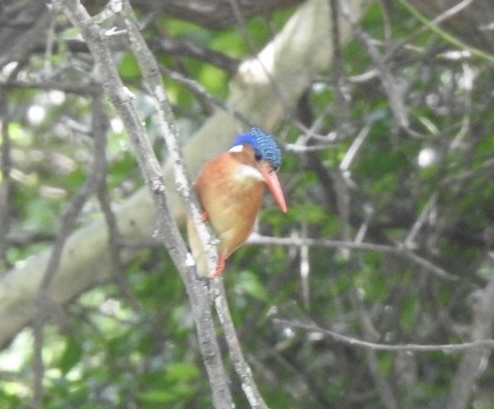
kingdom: Animalia
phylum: Chordata
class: Aves
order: Coraciiformes
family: Alcedinidae
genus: Corythornis
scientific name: Corythornis cristatus
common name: Malachite kingfisher
